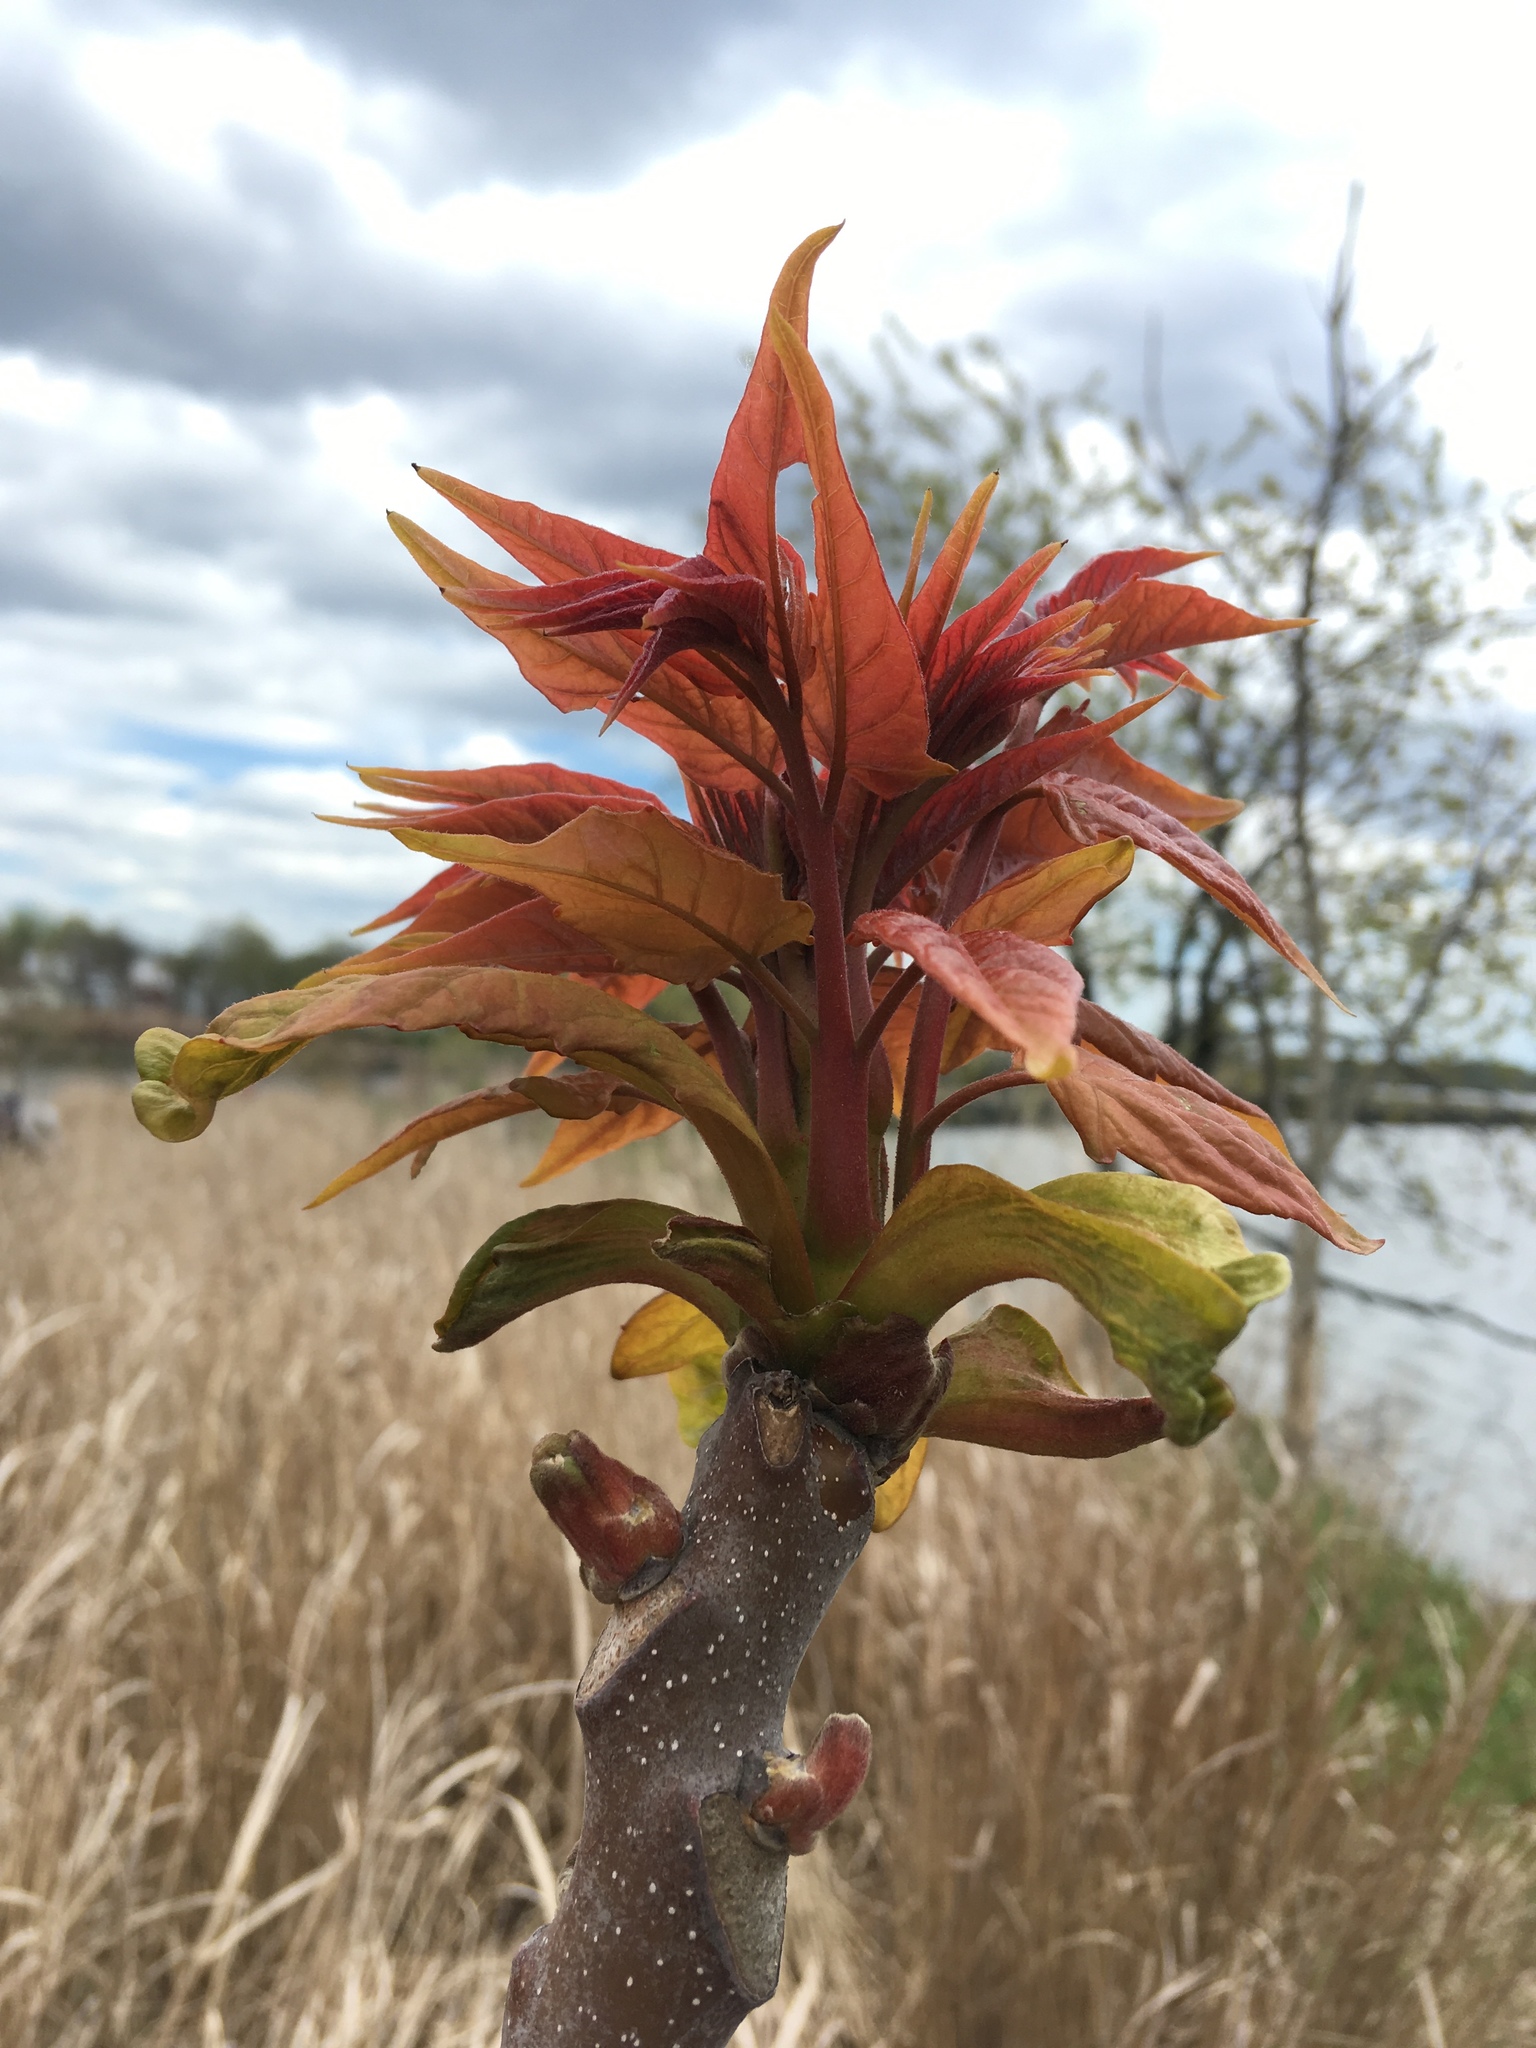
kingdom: Plantae
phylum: Tracheophyta
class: Magnoliopsida
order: Sapindales
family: Simaroubaceae
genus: Ailanthus
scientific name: Ailanthus altissima
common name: Tree-of-heaven
